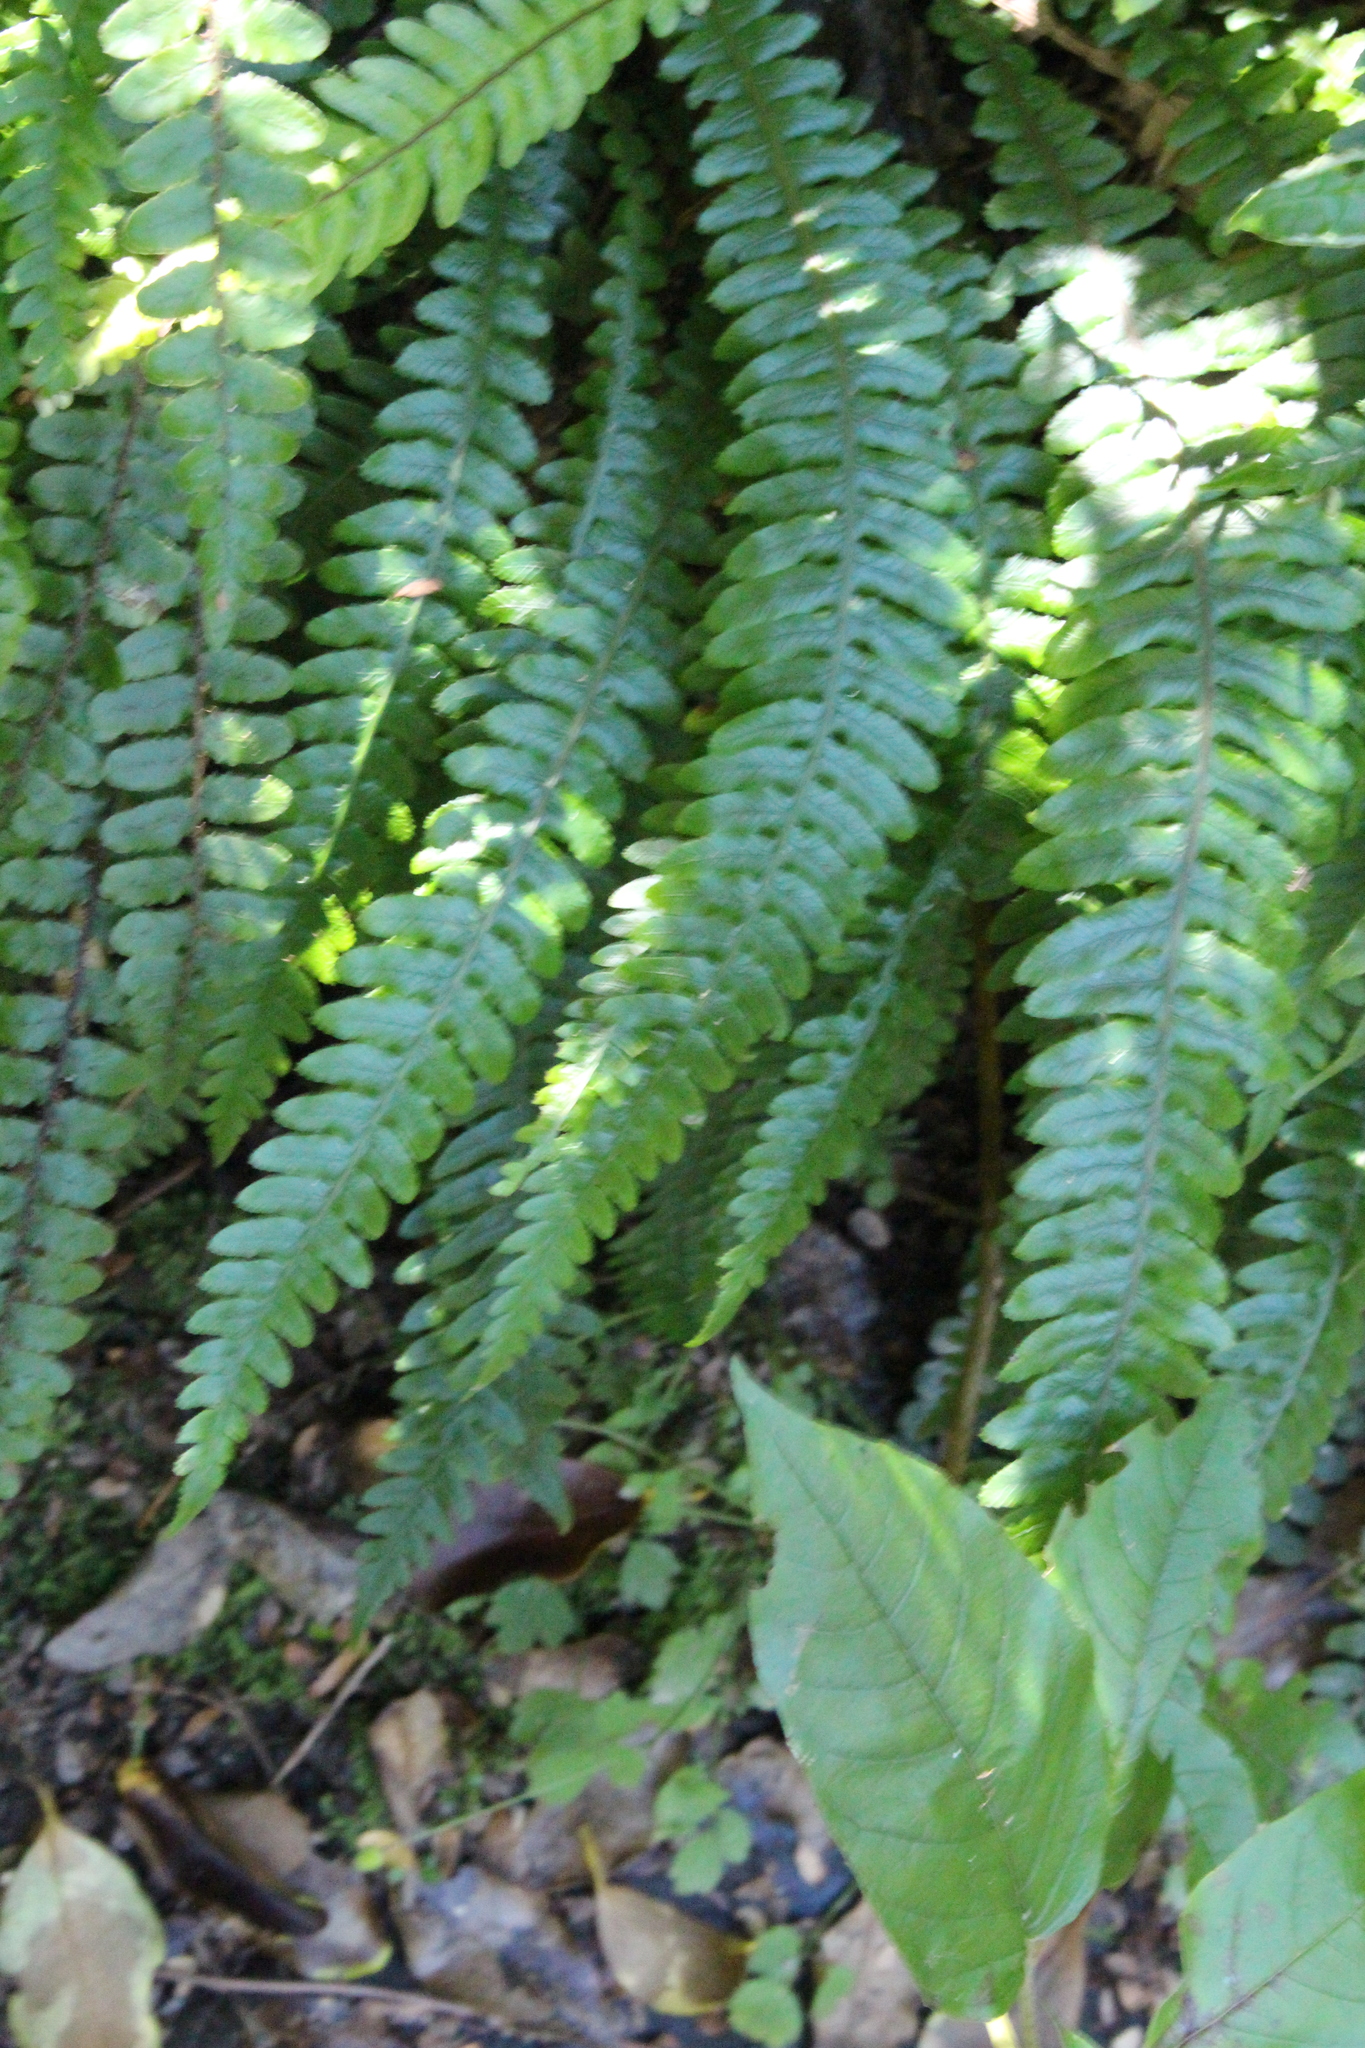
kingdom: Plantae
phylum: Tracheophyta
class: Polypodiopsida
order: Polypodiales
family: Blechnaceae
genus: Austroblechnum
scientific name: Austroblechnum lanceolatum
